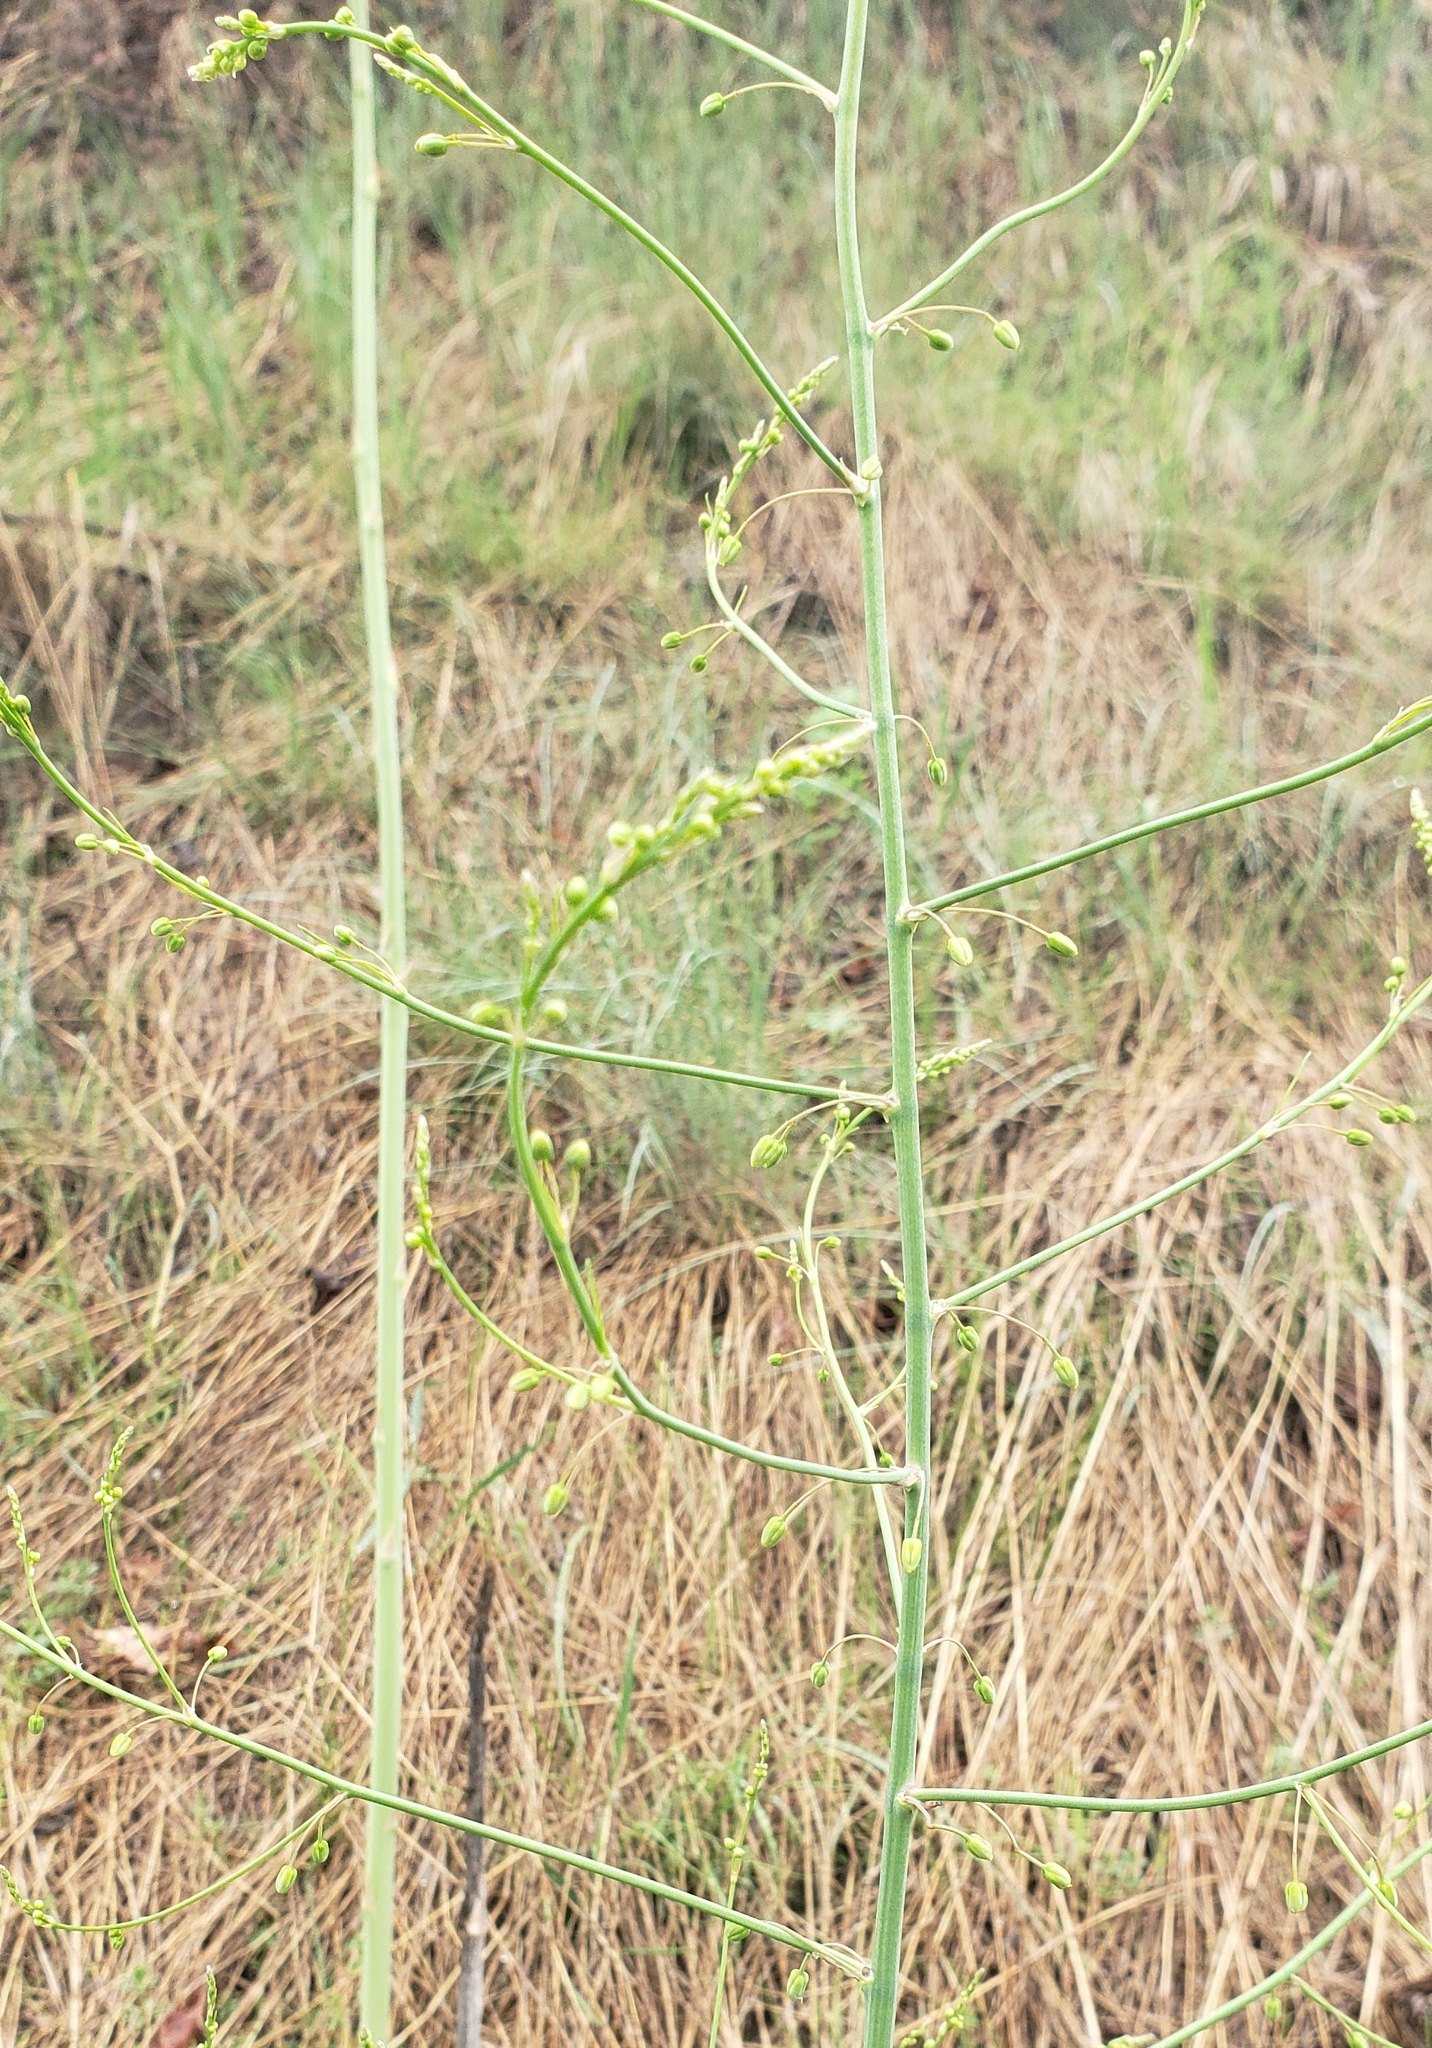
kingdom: Plantae
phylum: Tracheophyta
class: Liliopsida
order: Asparagales
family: Asparagaceae
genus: Asparagus
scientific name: Asparagus officinalis
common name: Garden asparagus
